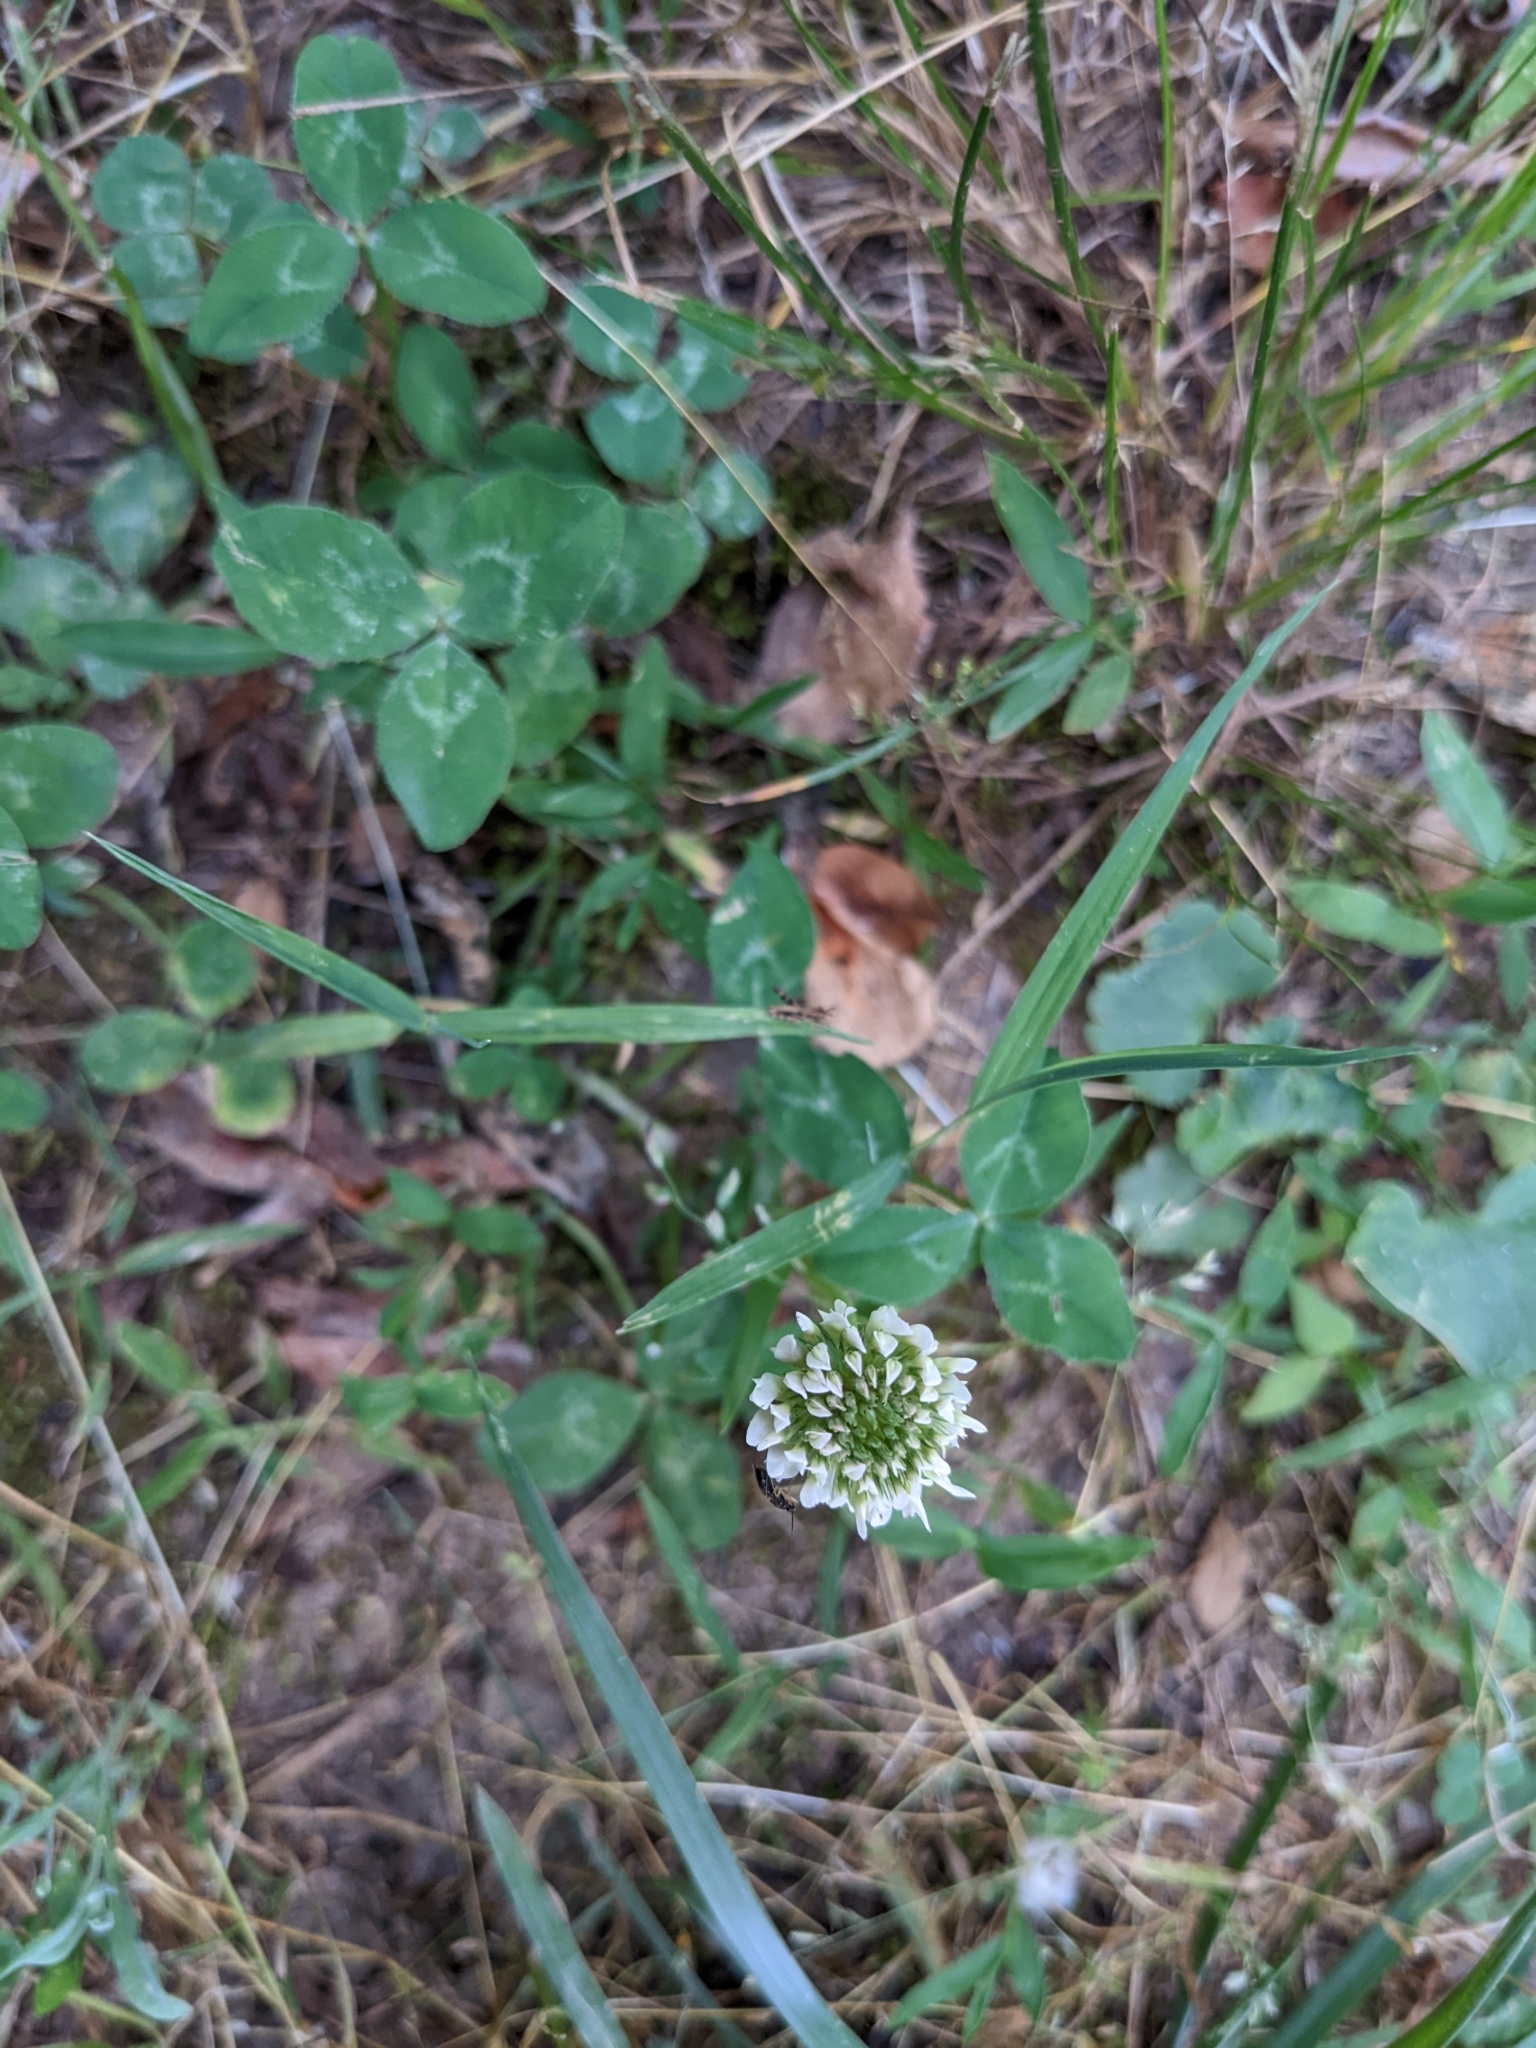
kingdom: Plantae
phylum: Tracheophyta
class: Magnoliopsida
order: Fabales
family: Fabaceae
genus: Trifolium
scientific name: Trifolium repens
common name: White clover
